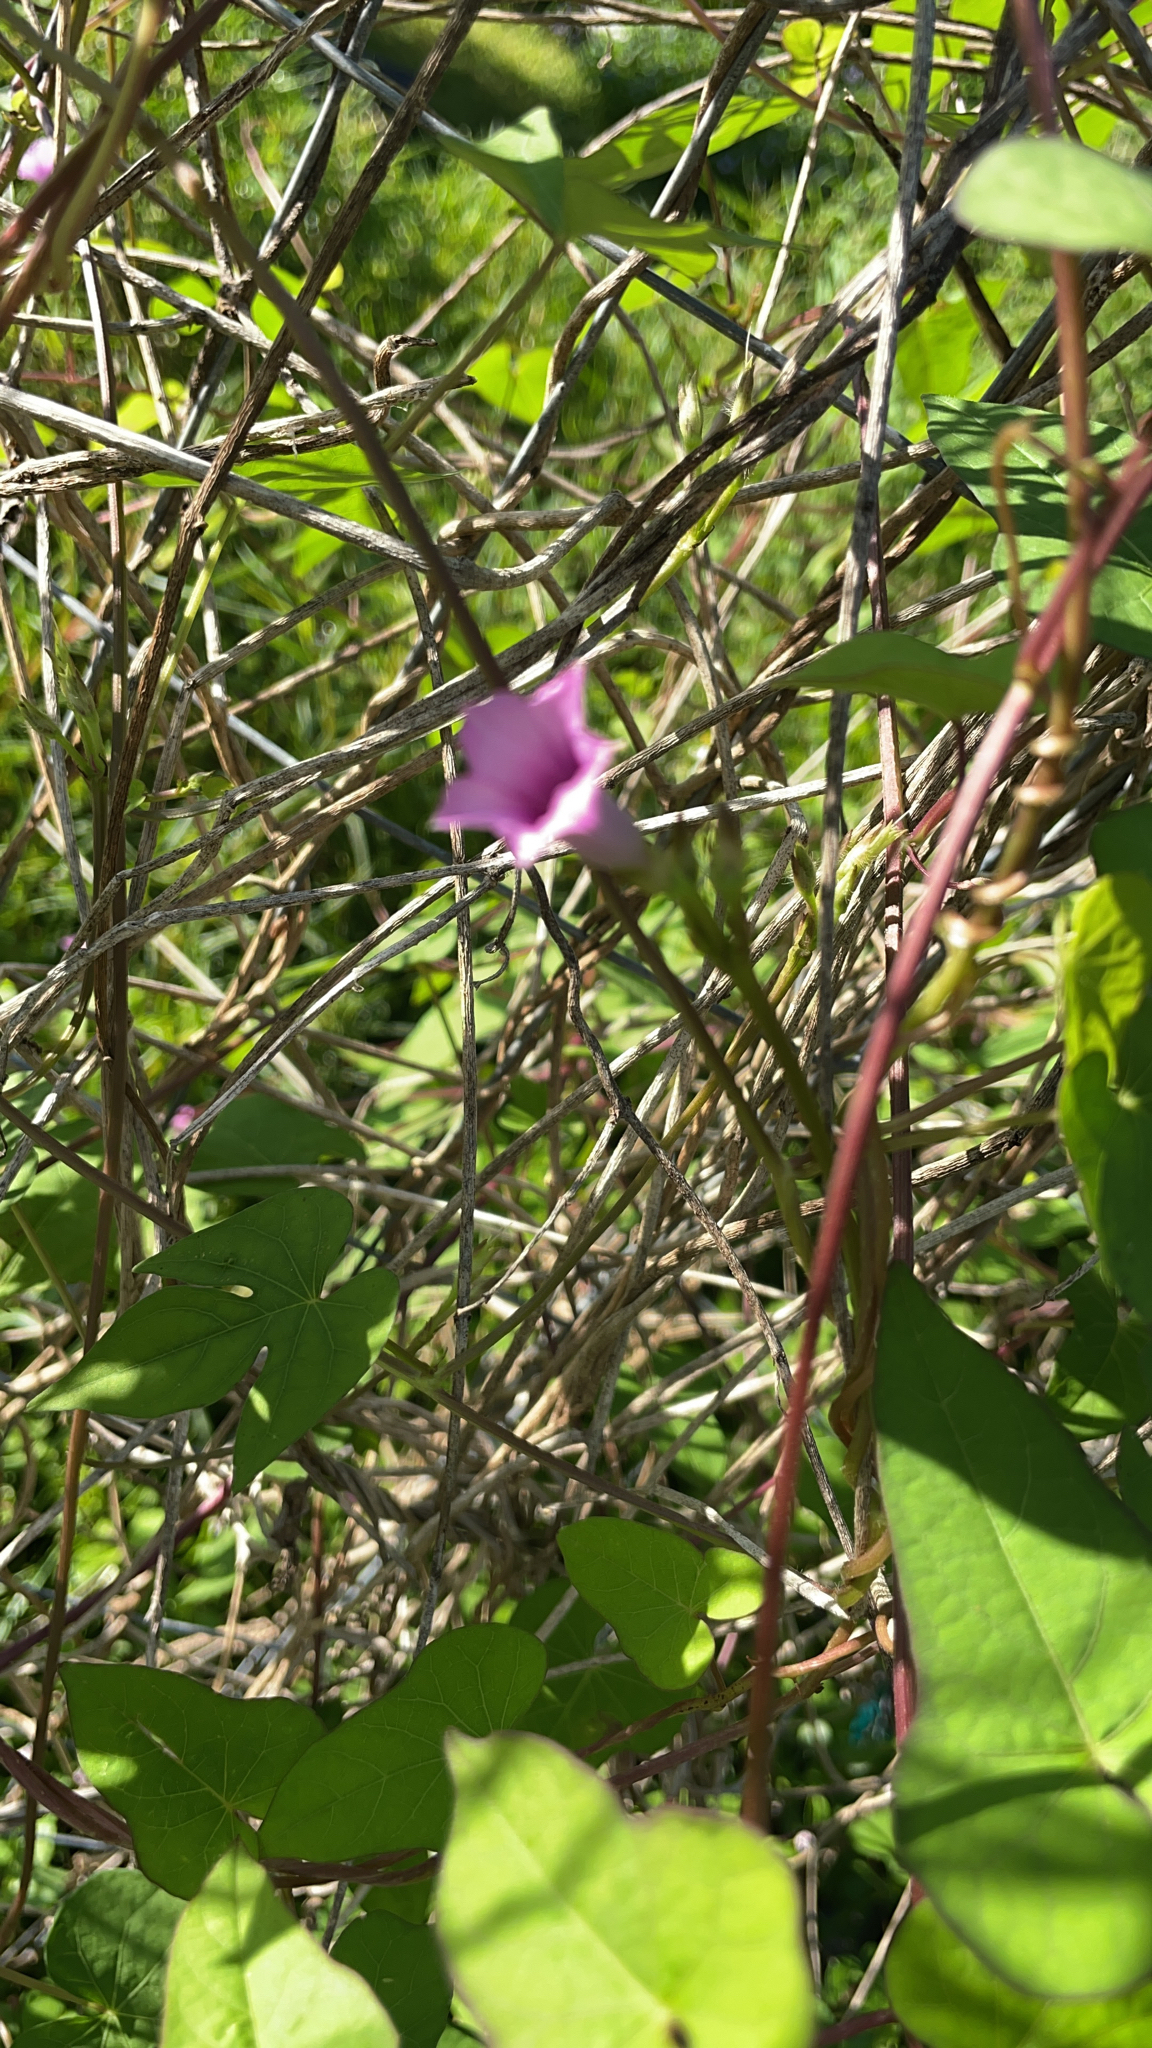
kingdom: Plantae
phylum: Tracheophyta
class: Magnoliopsida
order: Solanales
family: Convolvulaceae
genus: Ipomoea
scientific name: Ipomoea triloba
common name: Little-bell
